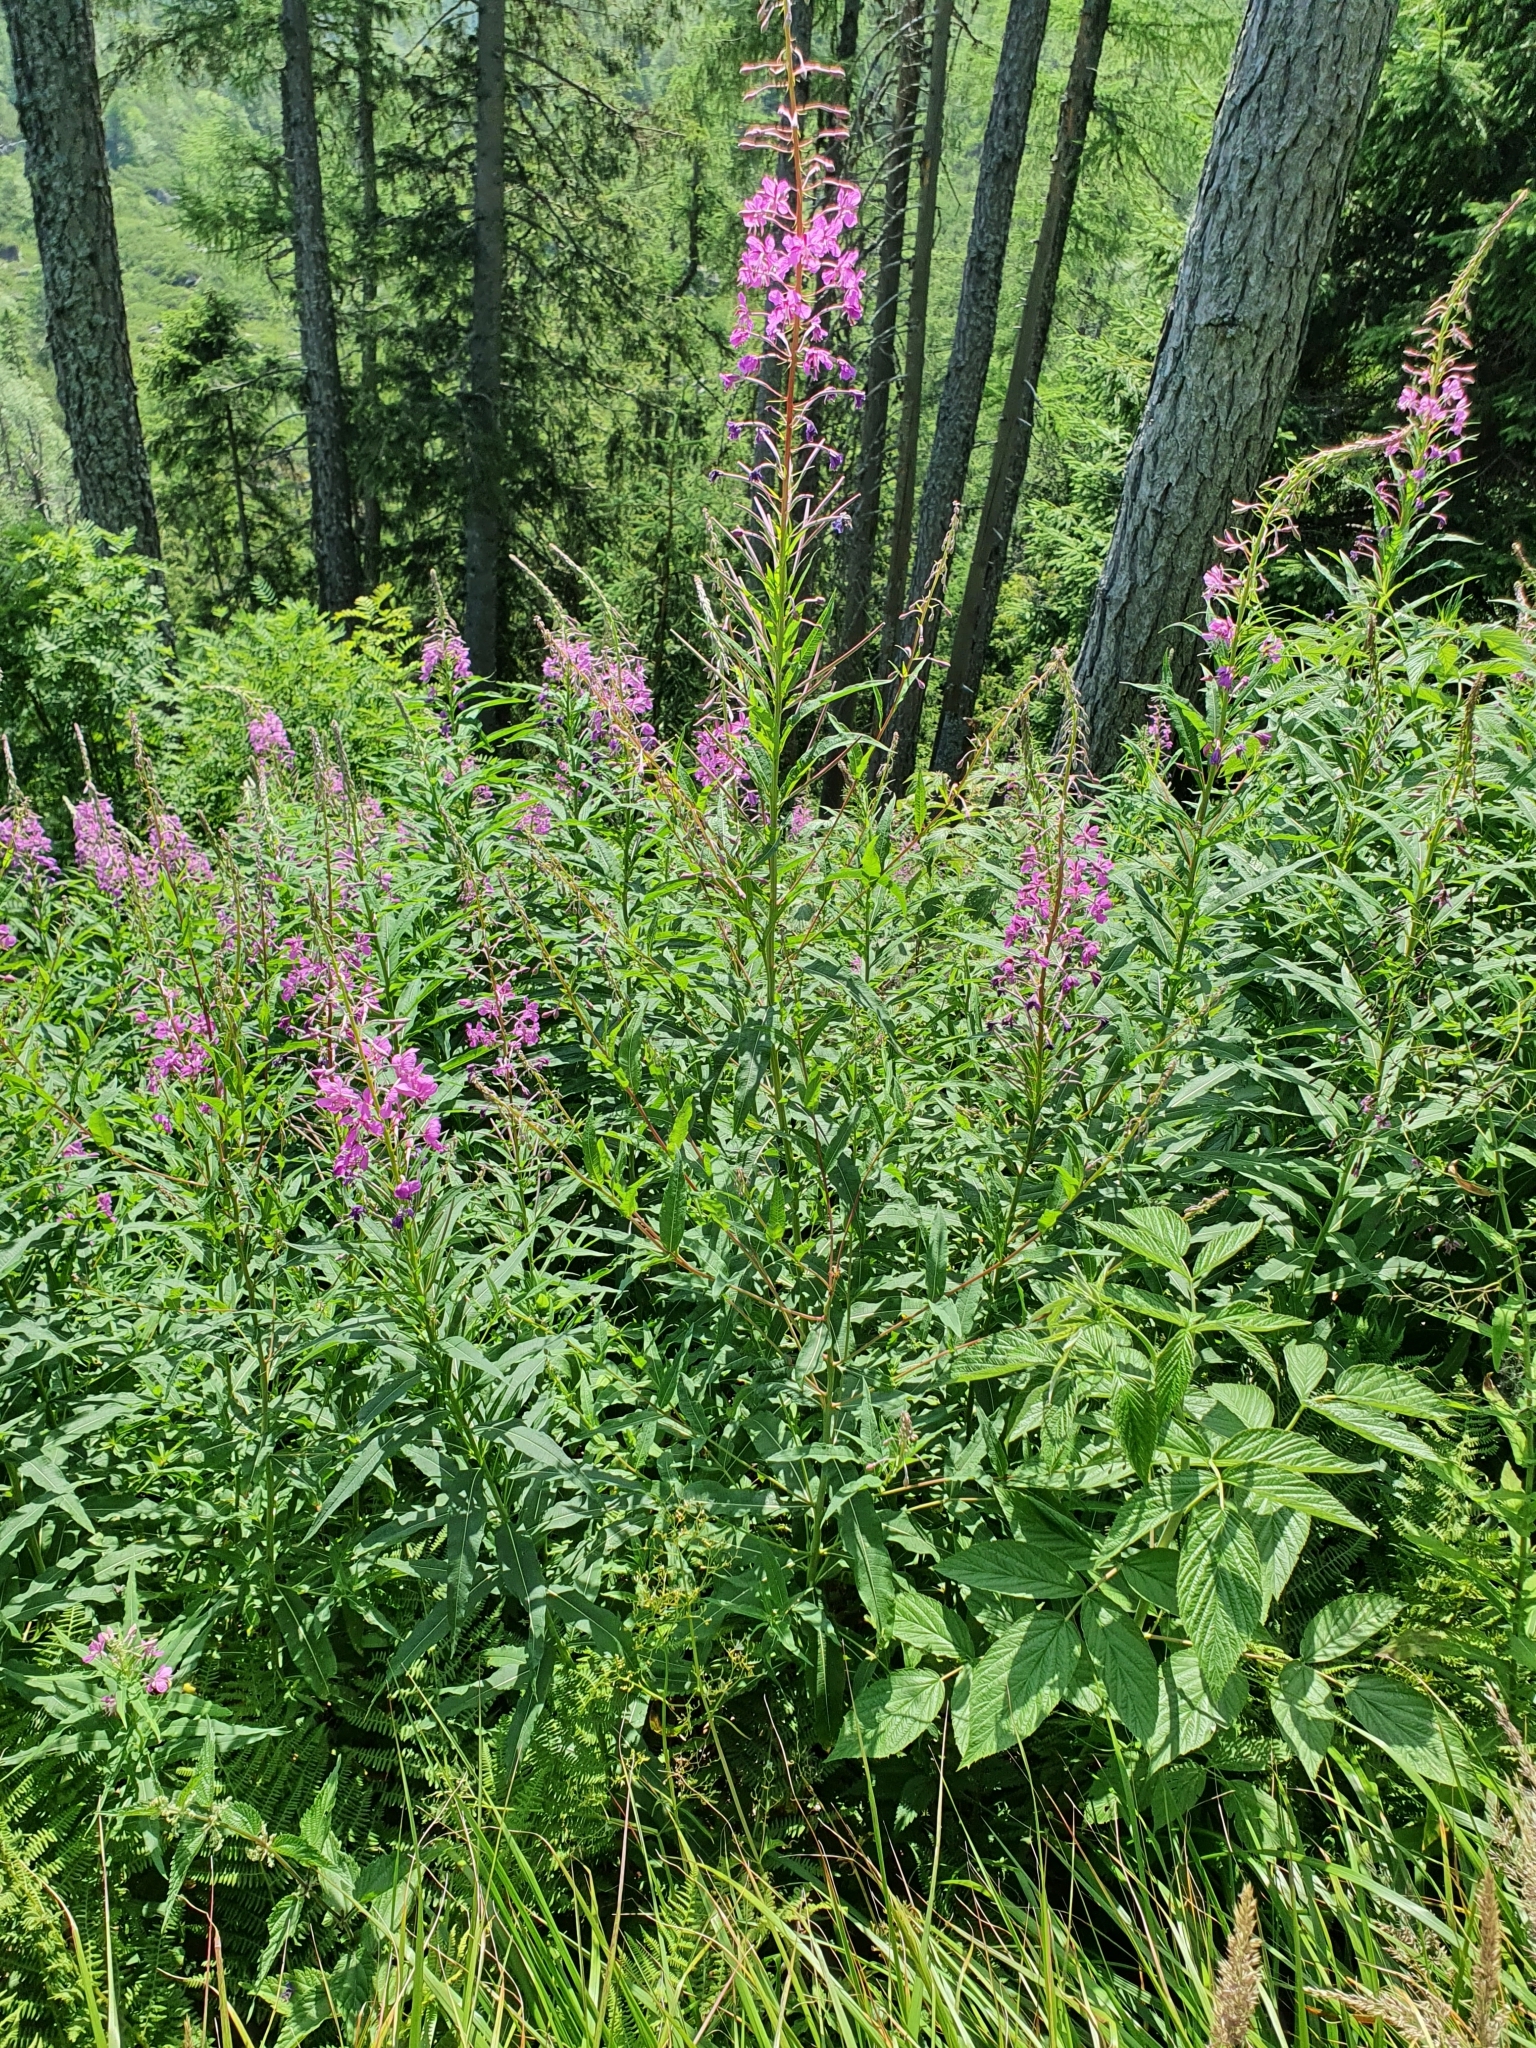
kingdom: Plantae
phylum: Tracheophyta
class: Magnoliopsida
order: Myrtales
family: Onagraceae
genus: Chamaenerion
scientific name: Chamaenerion angustifolium
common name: Fireweed
